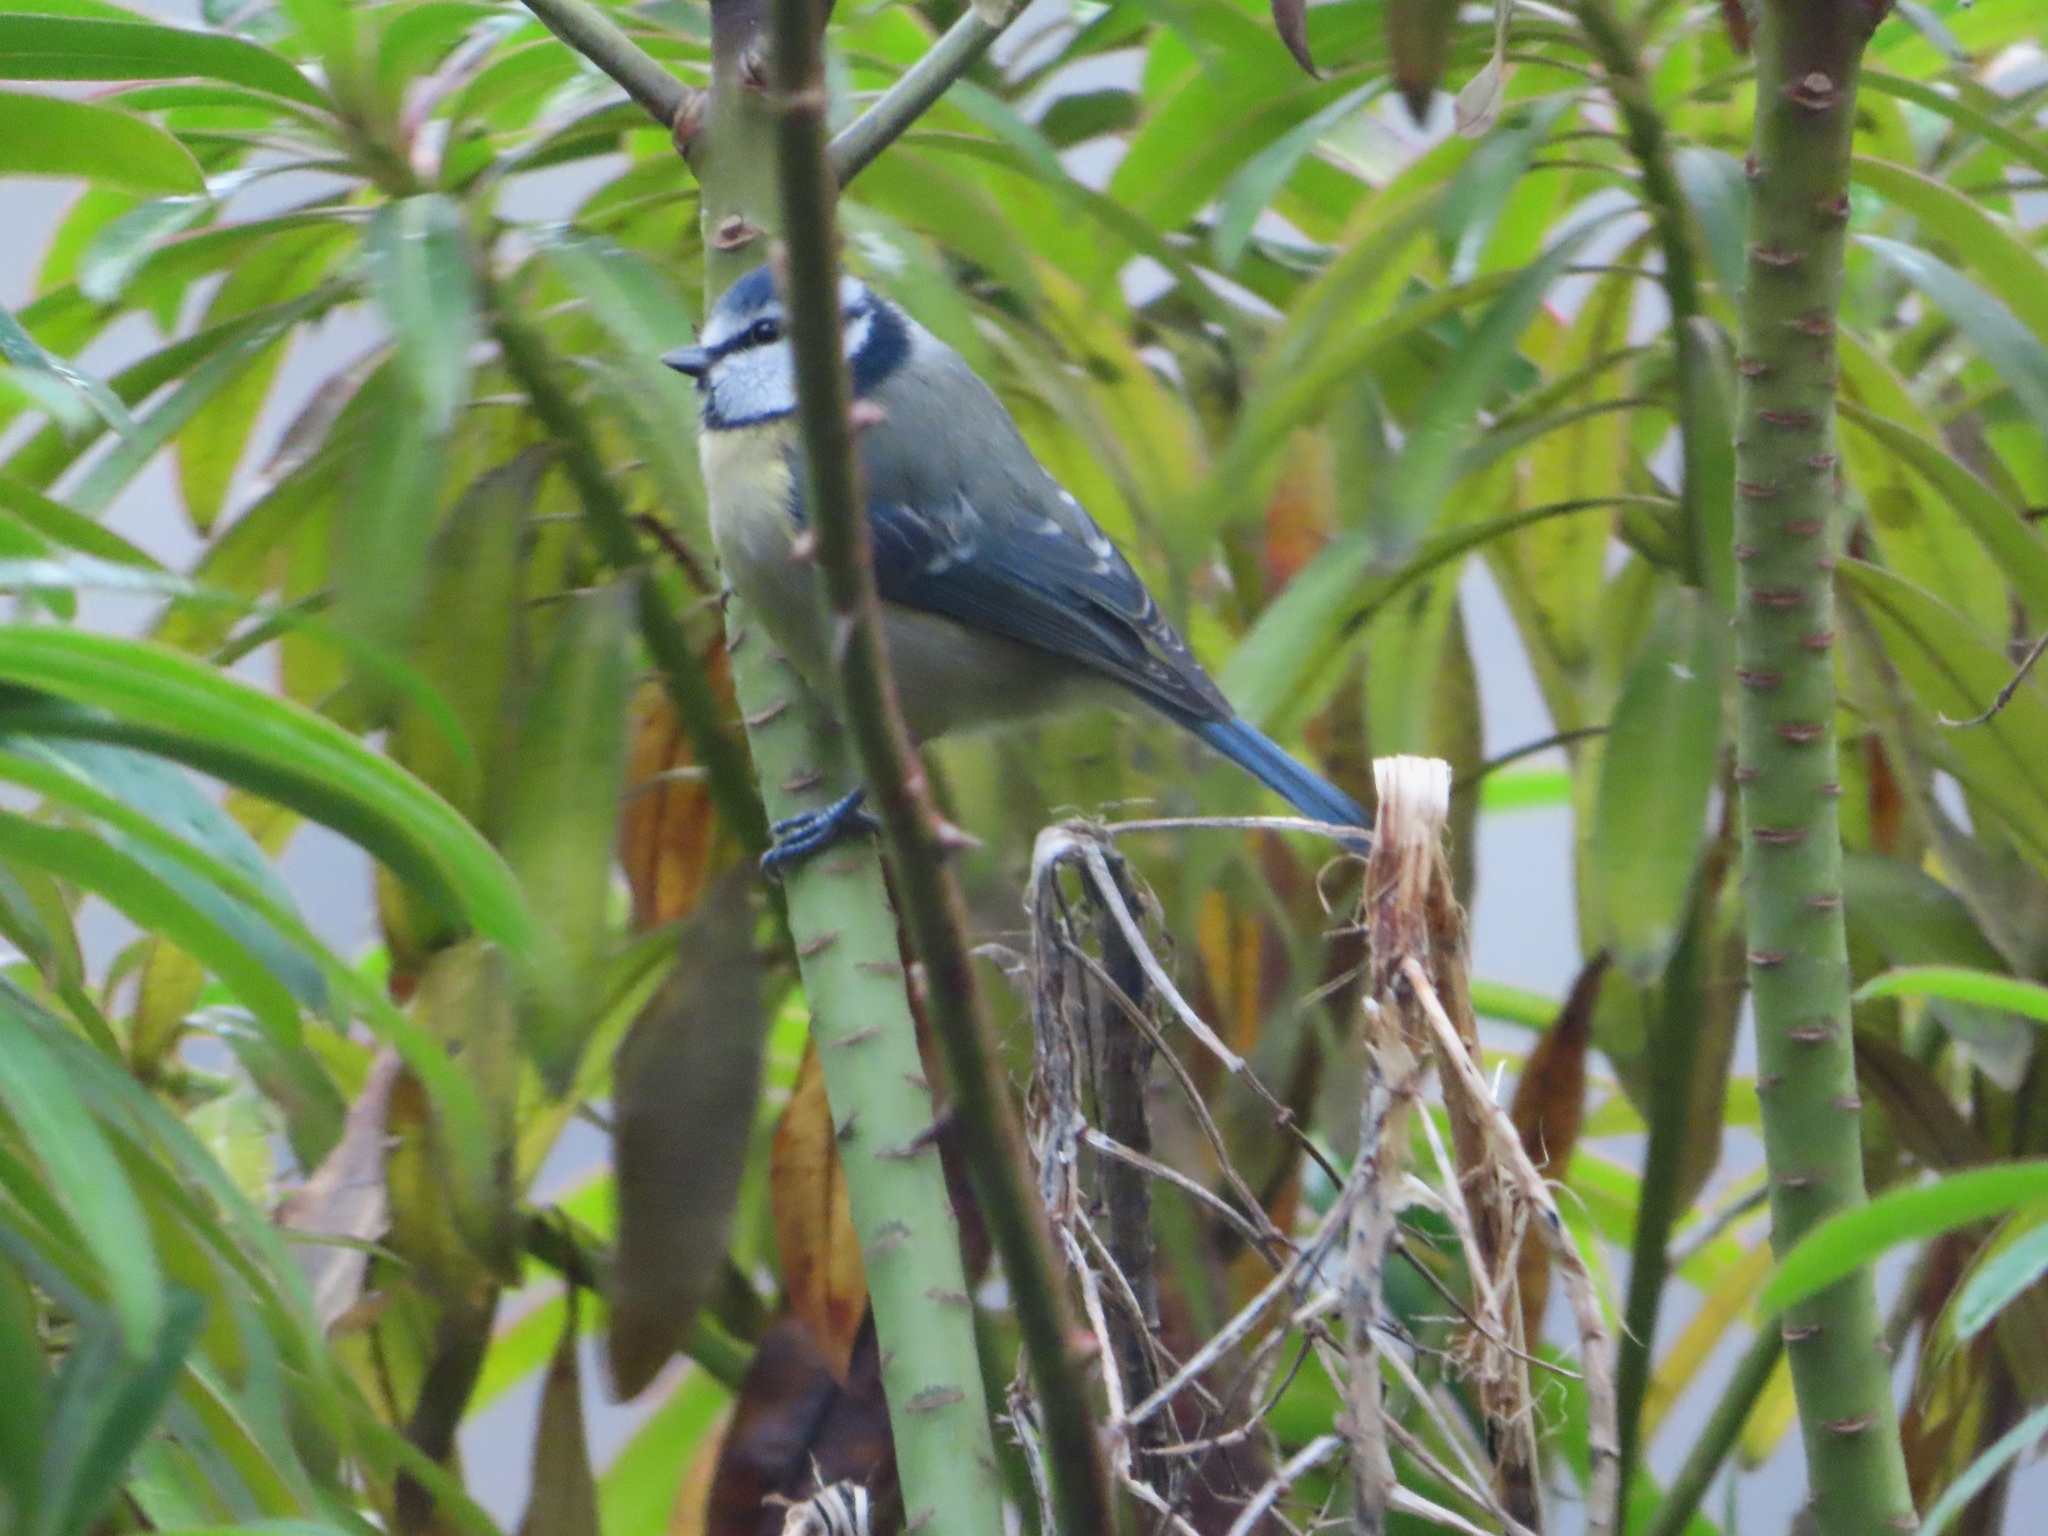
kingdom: Animalia
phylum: Chordata
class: Aves
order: Passeriformes
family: Paridae
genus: Cyanistes
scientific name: Cyanistes caeruleus
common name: Eurasian blue tit
